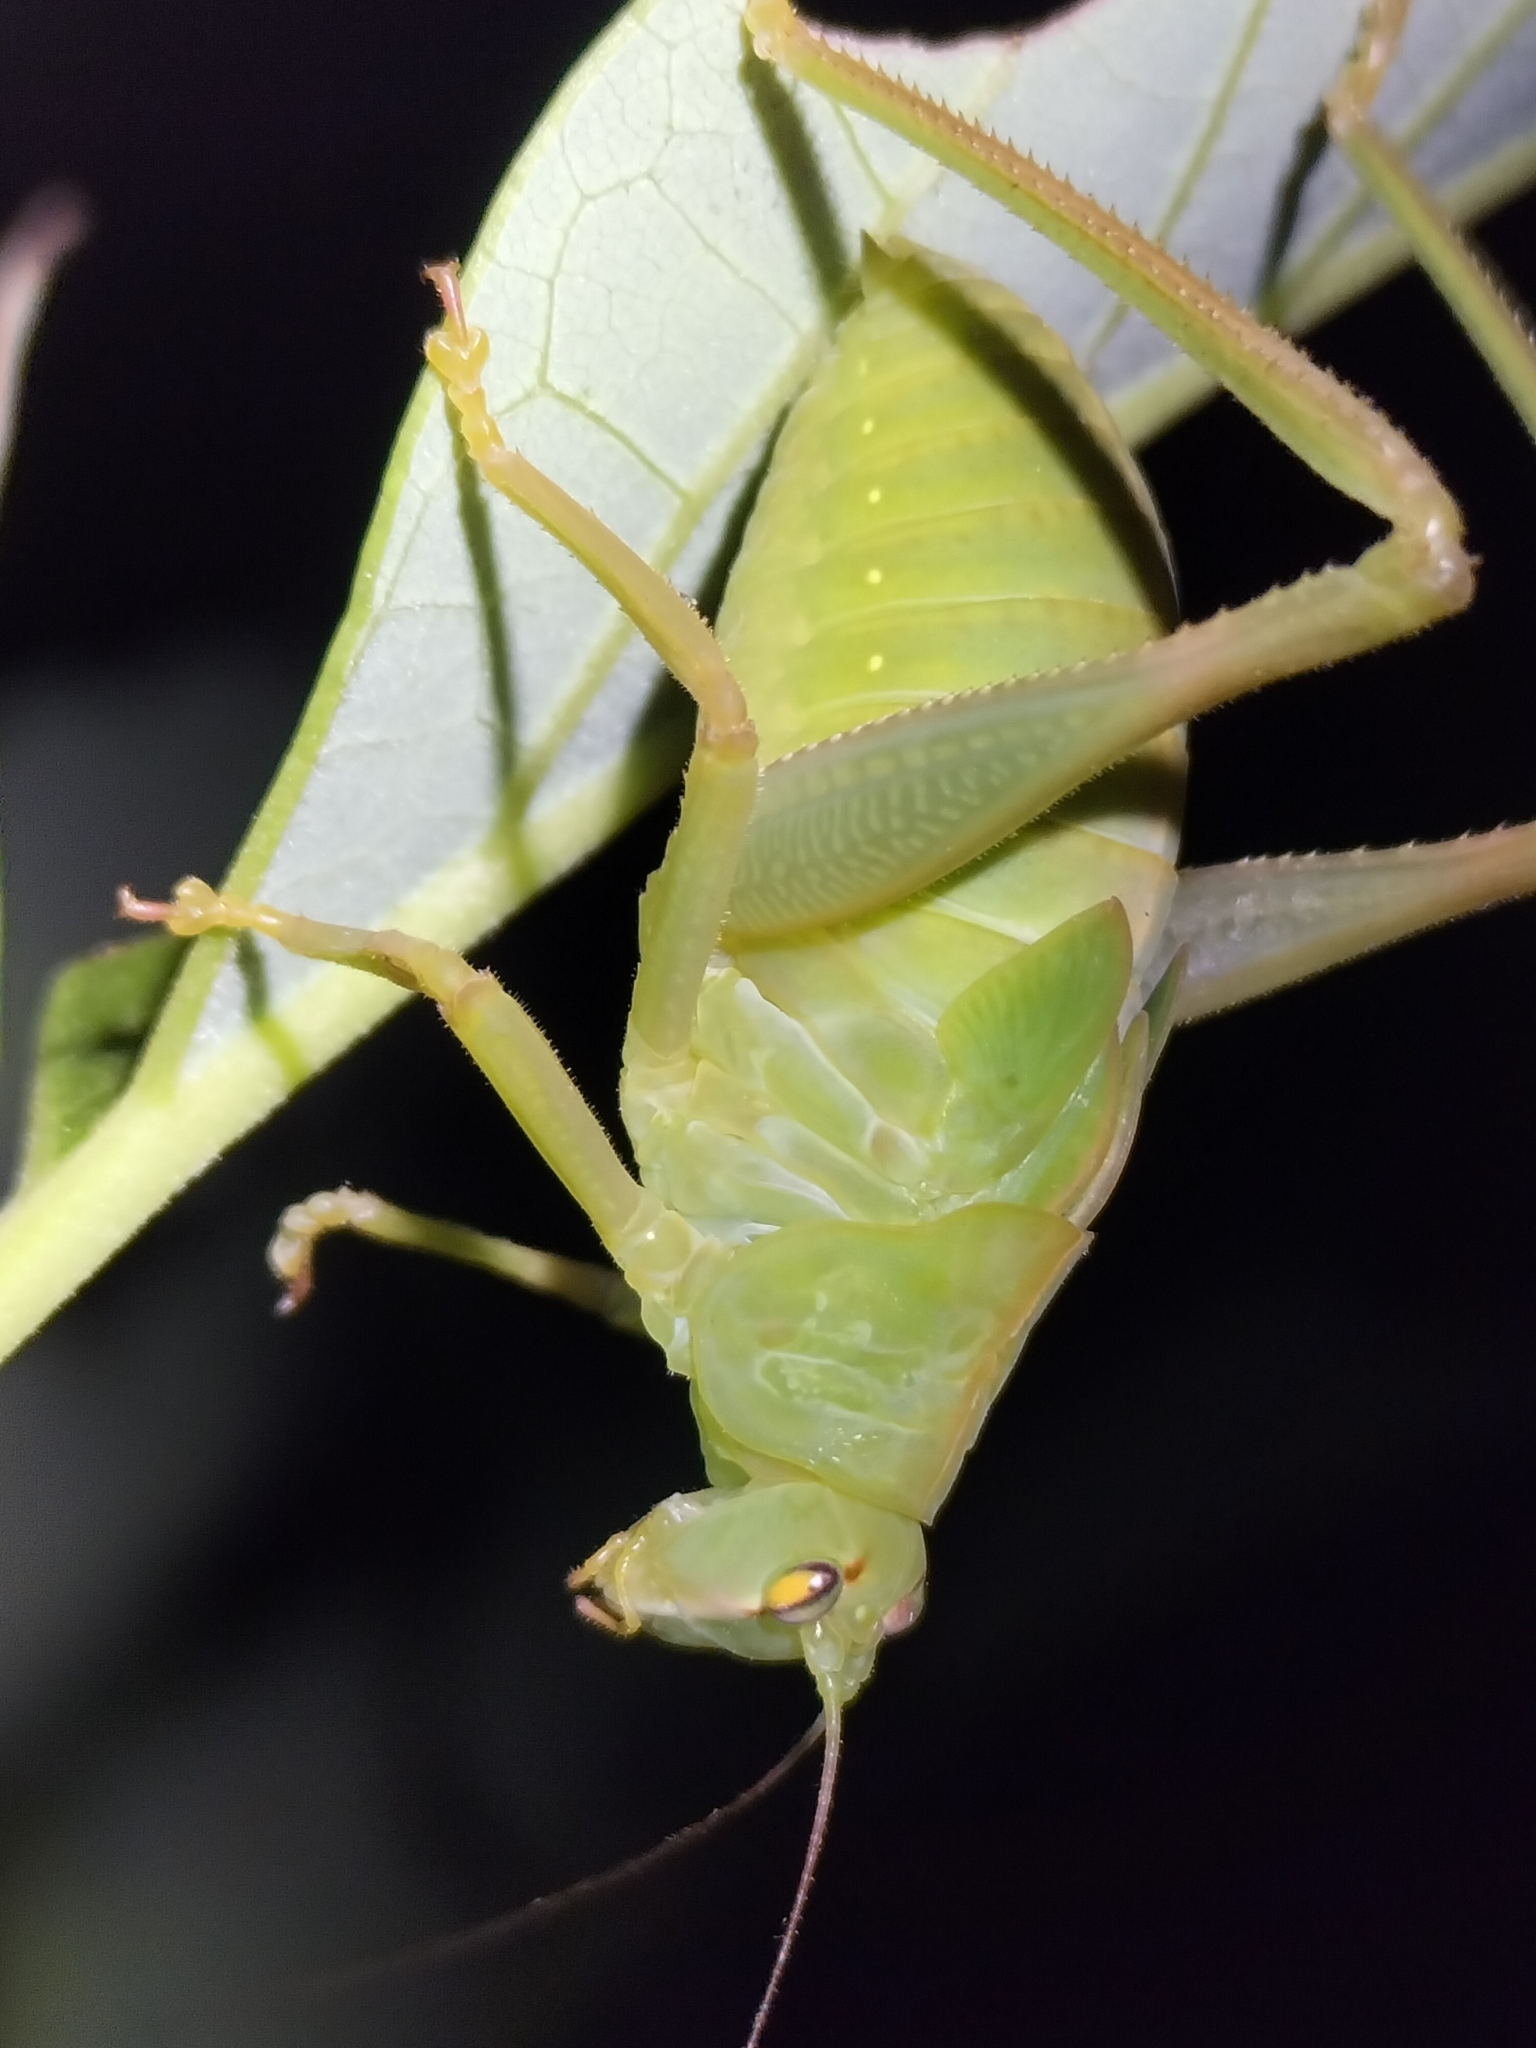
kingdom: Animalia
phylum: Arthropoda
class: Insecta
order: Orthoptera
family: Tettigoniidae
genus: Paracaedicia
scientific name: Paracaedicia serrata
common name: Serrated bush katydid
